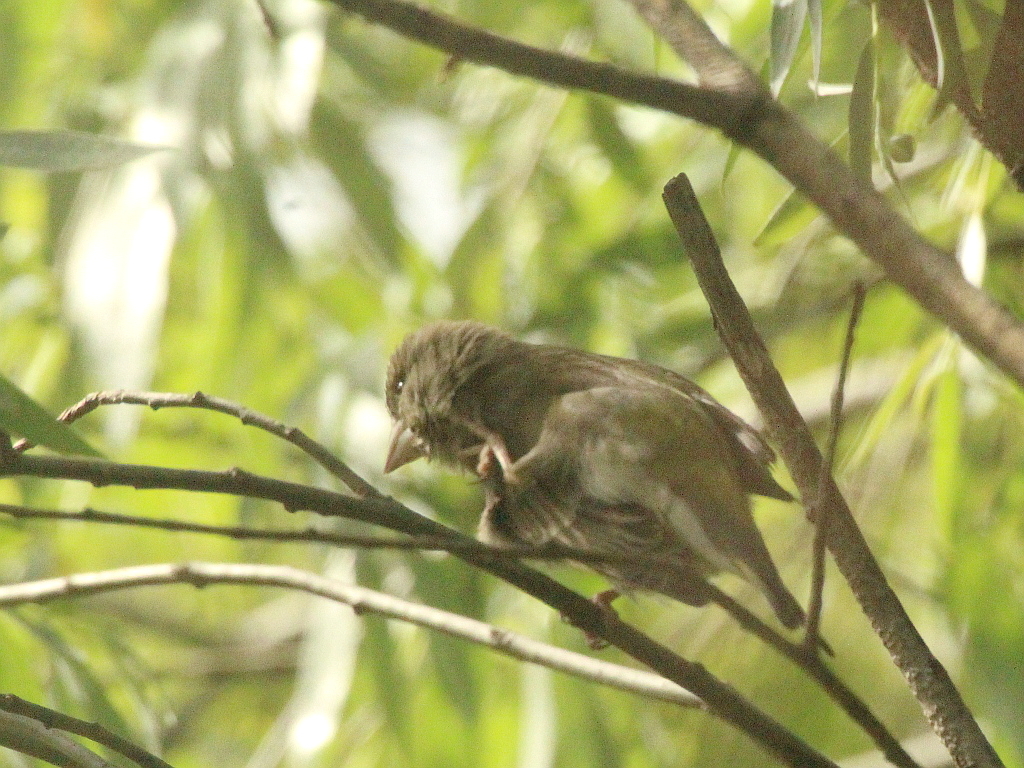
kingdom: Plantae
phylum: Tracheophyta
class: Liliopsida
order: Poales
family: Poaceae
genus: Chloris
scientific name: Chloris chloris
